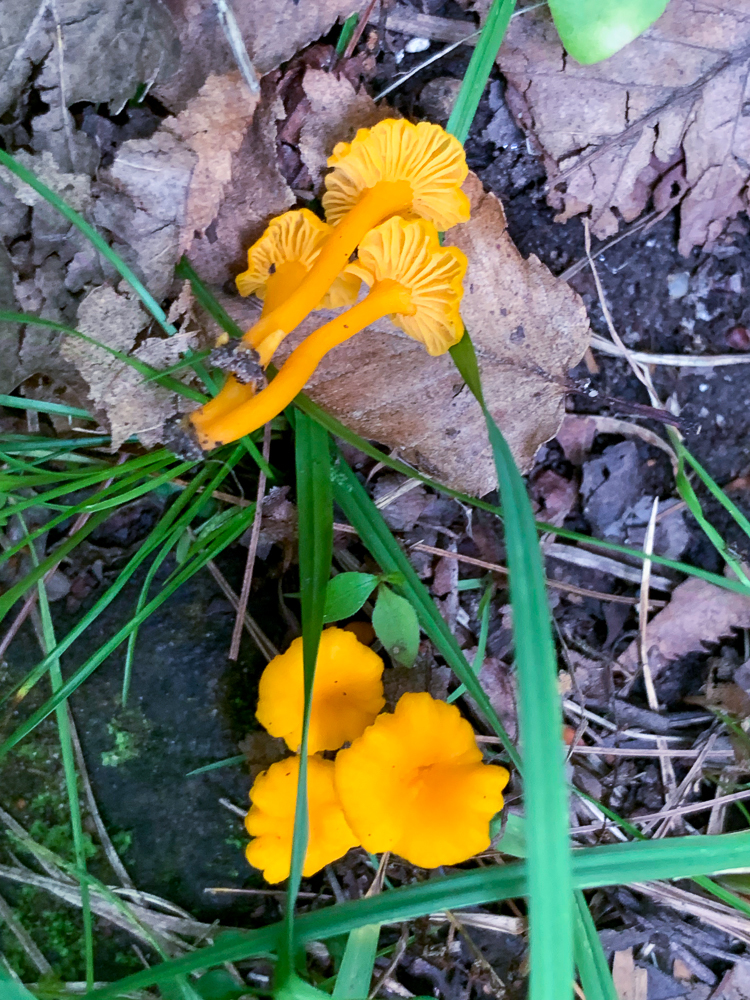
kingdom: Fungi
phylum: Basidiomycota
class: Agaricomycetes
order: Cantharellales
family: Hydnaceae
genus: Craterellus
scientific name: Craterellus ignicolor
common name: Flame chanterelle
